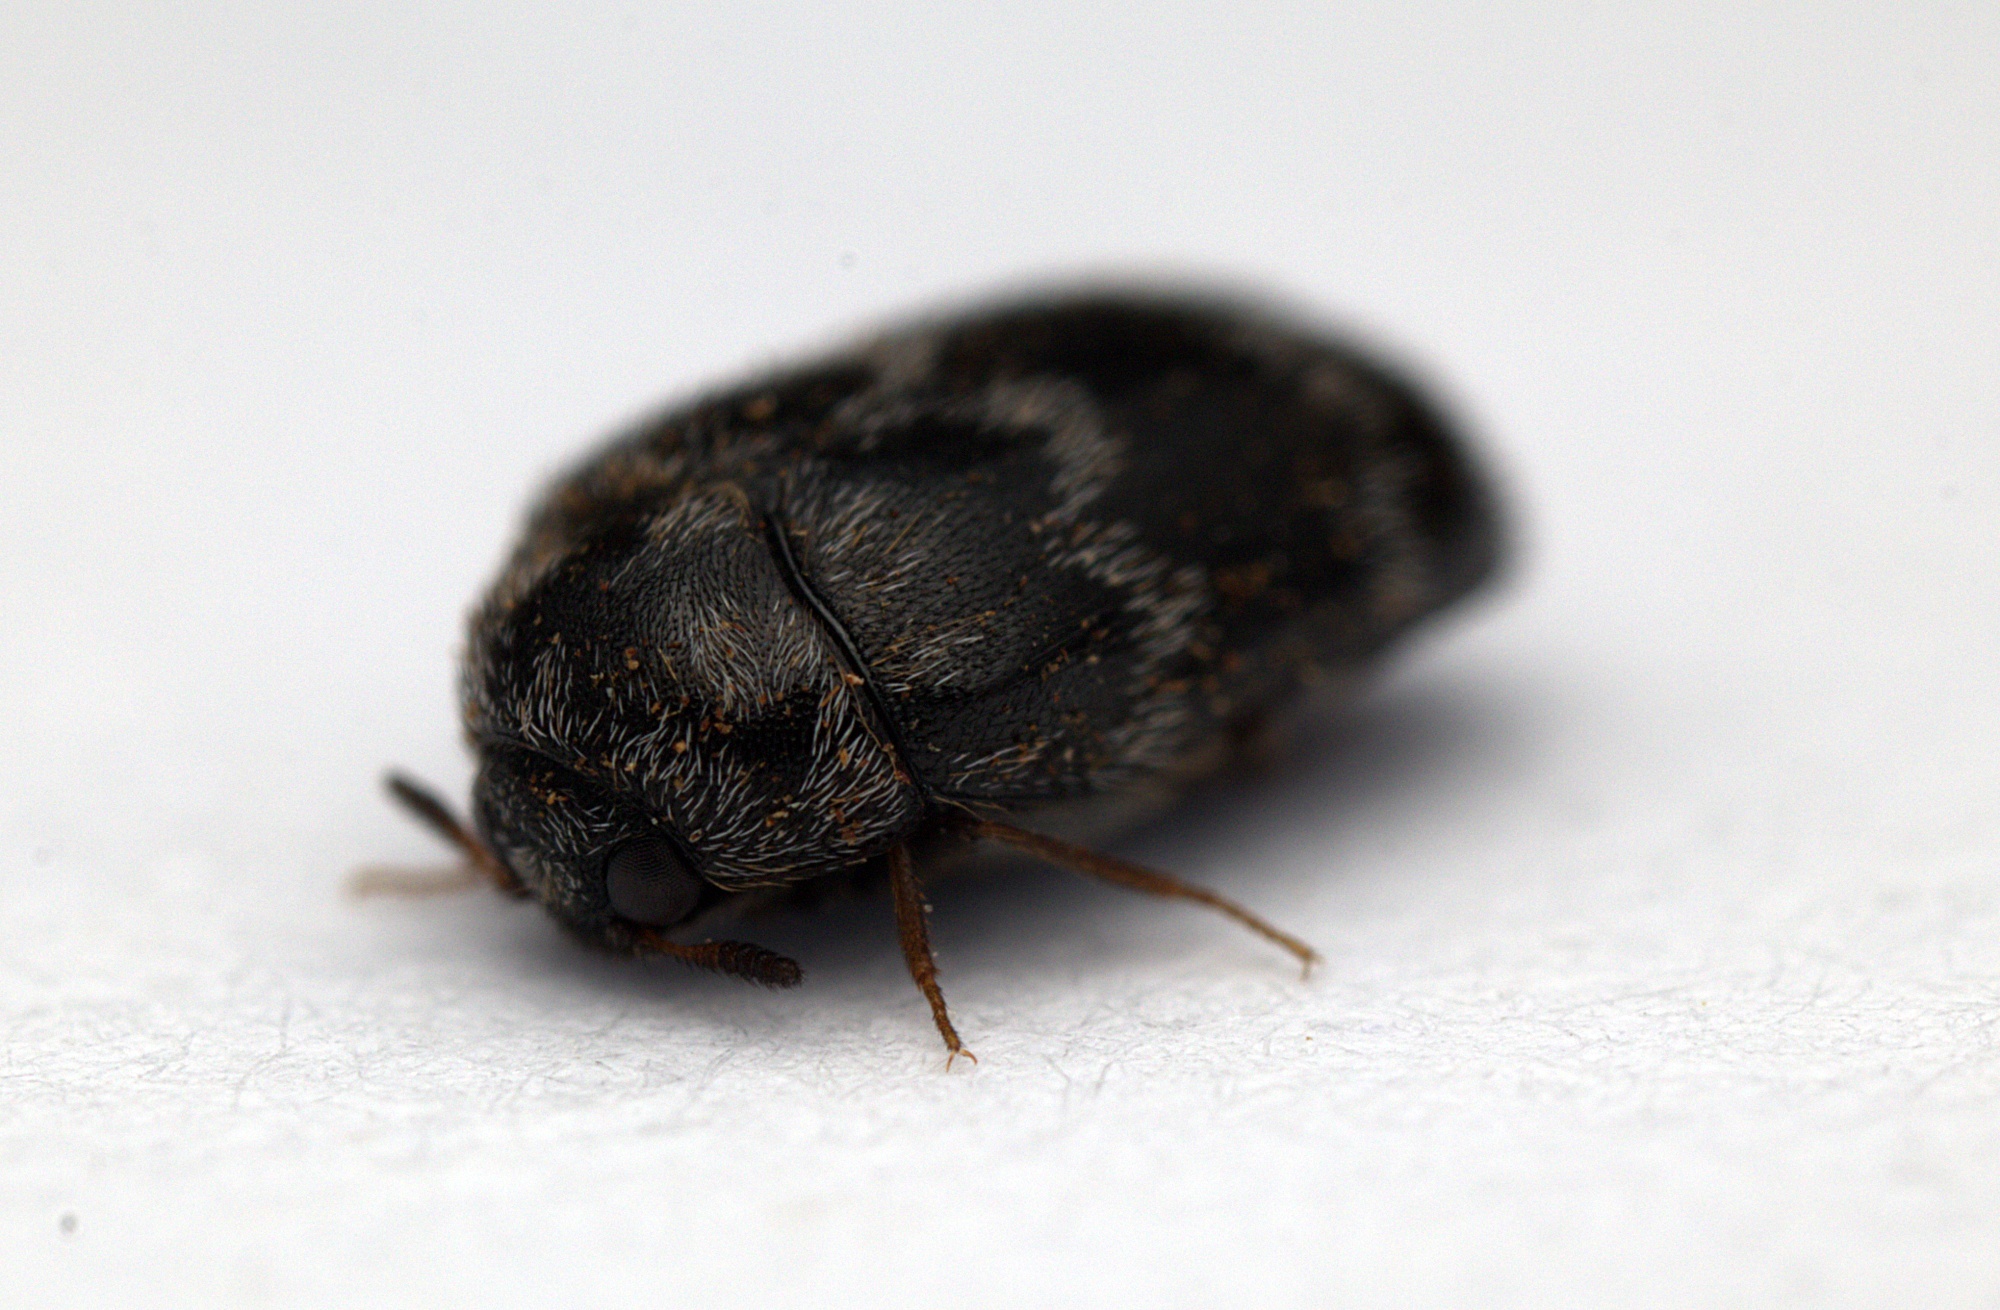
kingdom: Animalia
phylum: Arthropoda
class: Insecta
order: Coleoptera
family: Dermestidae
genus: Anthrenocerus
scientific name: Anthrenocerus australis
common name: Australian carpet beetle
